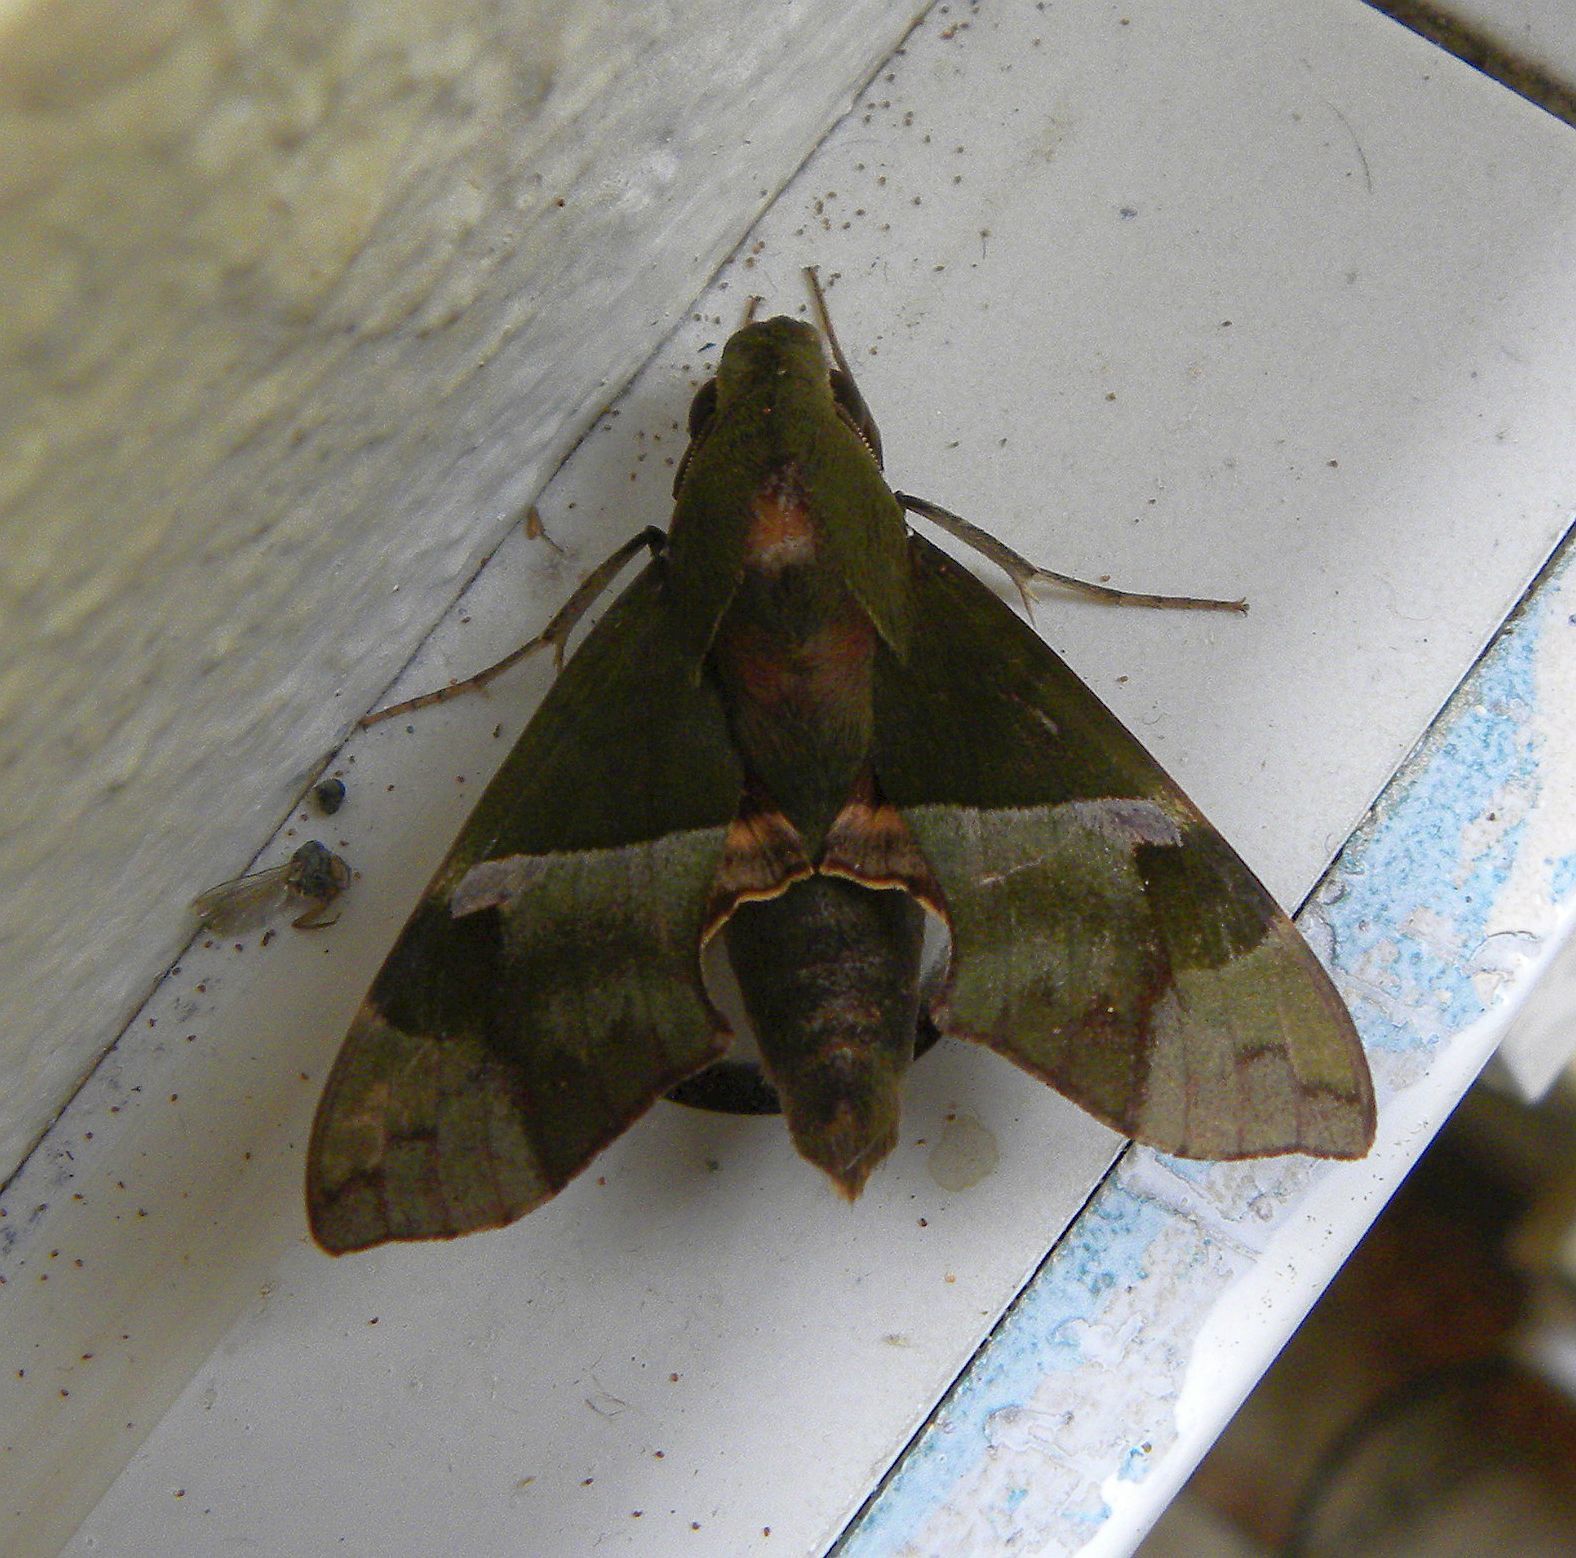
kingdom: Animalia
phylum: Arthropoda
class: Insecta
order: Lepidoptera
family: Sphingidae
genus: Angonyx
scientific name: Angonyx testacea
